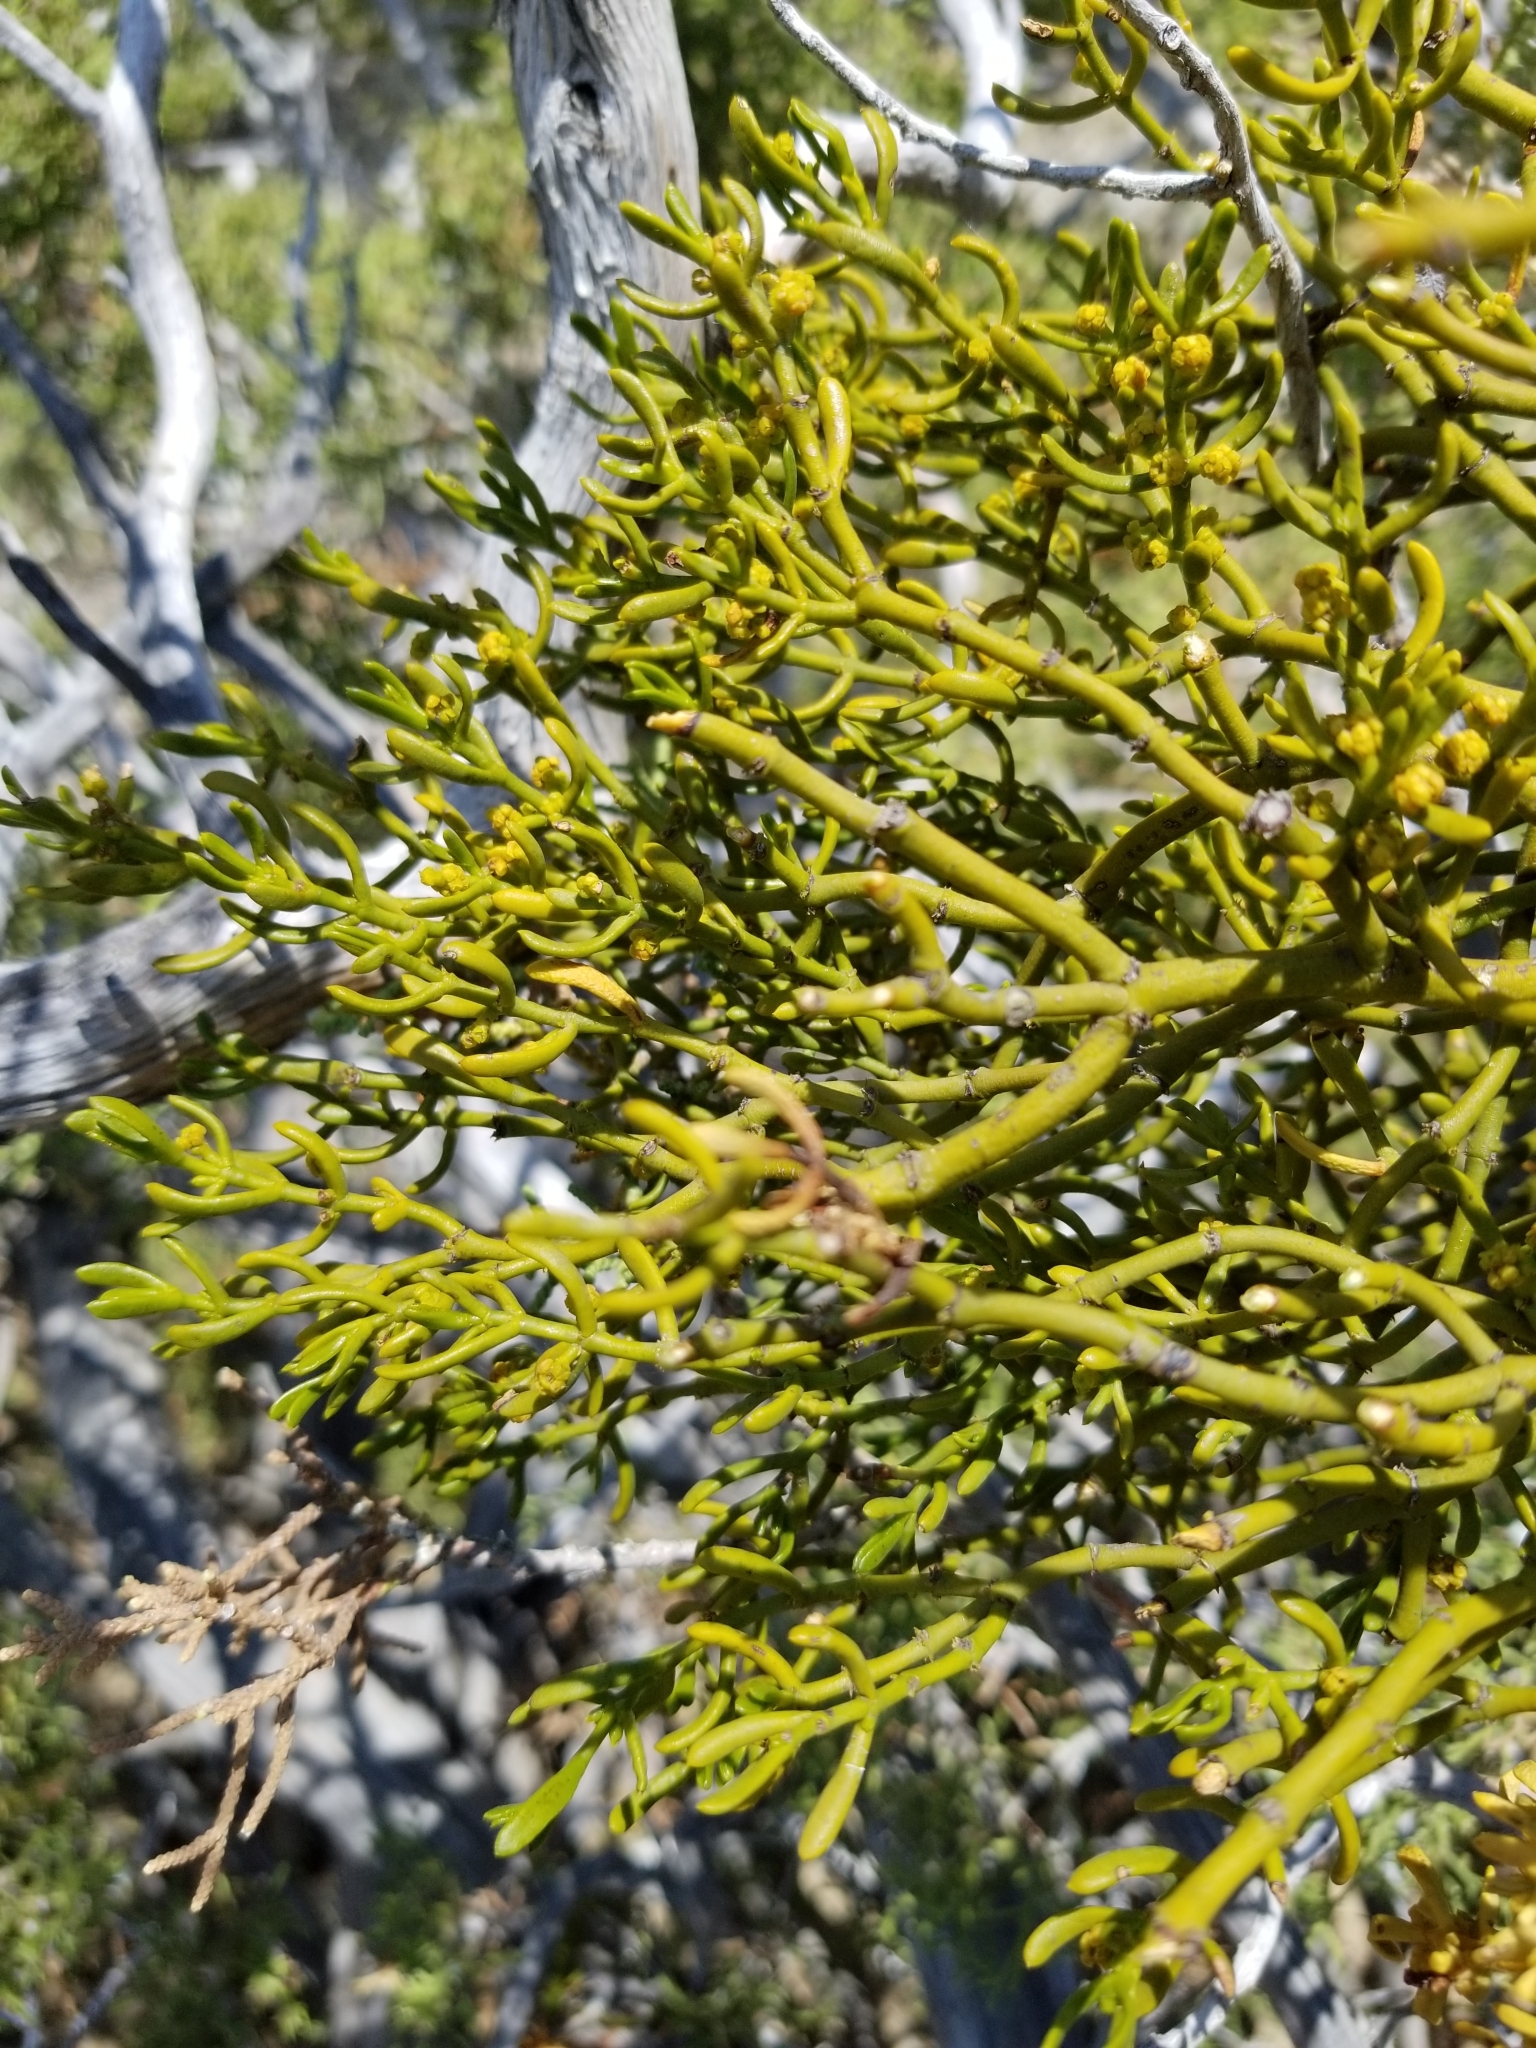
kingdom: Plantae
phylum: Tracheophyta
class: Magnoliopsida
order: Santalales
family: Viscaceae
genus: Phoradendron
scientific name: Phoradendron bolleanum
